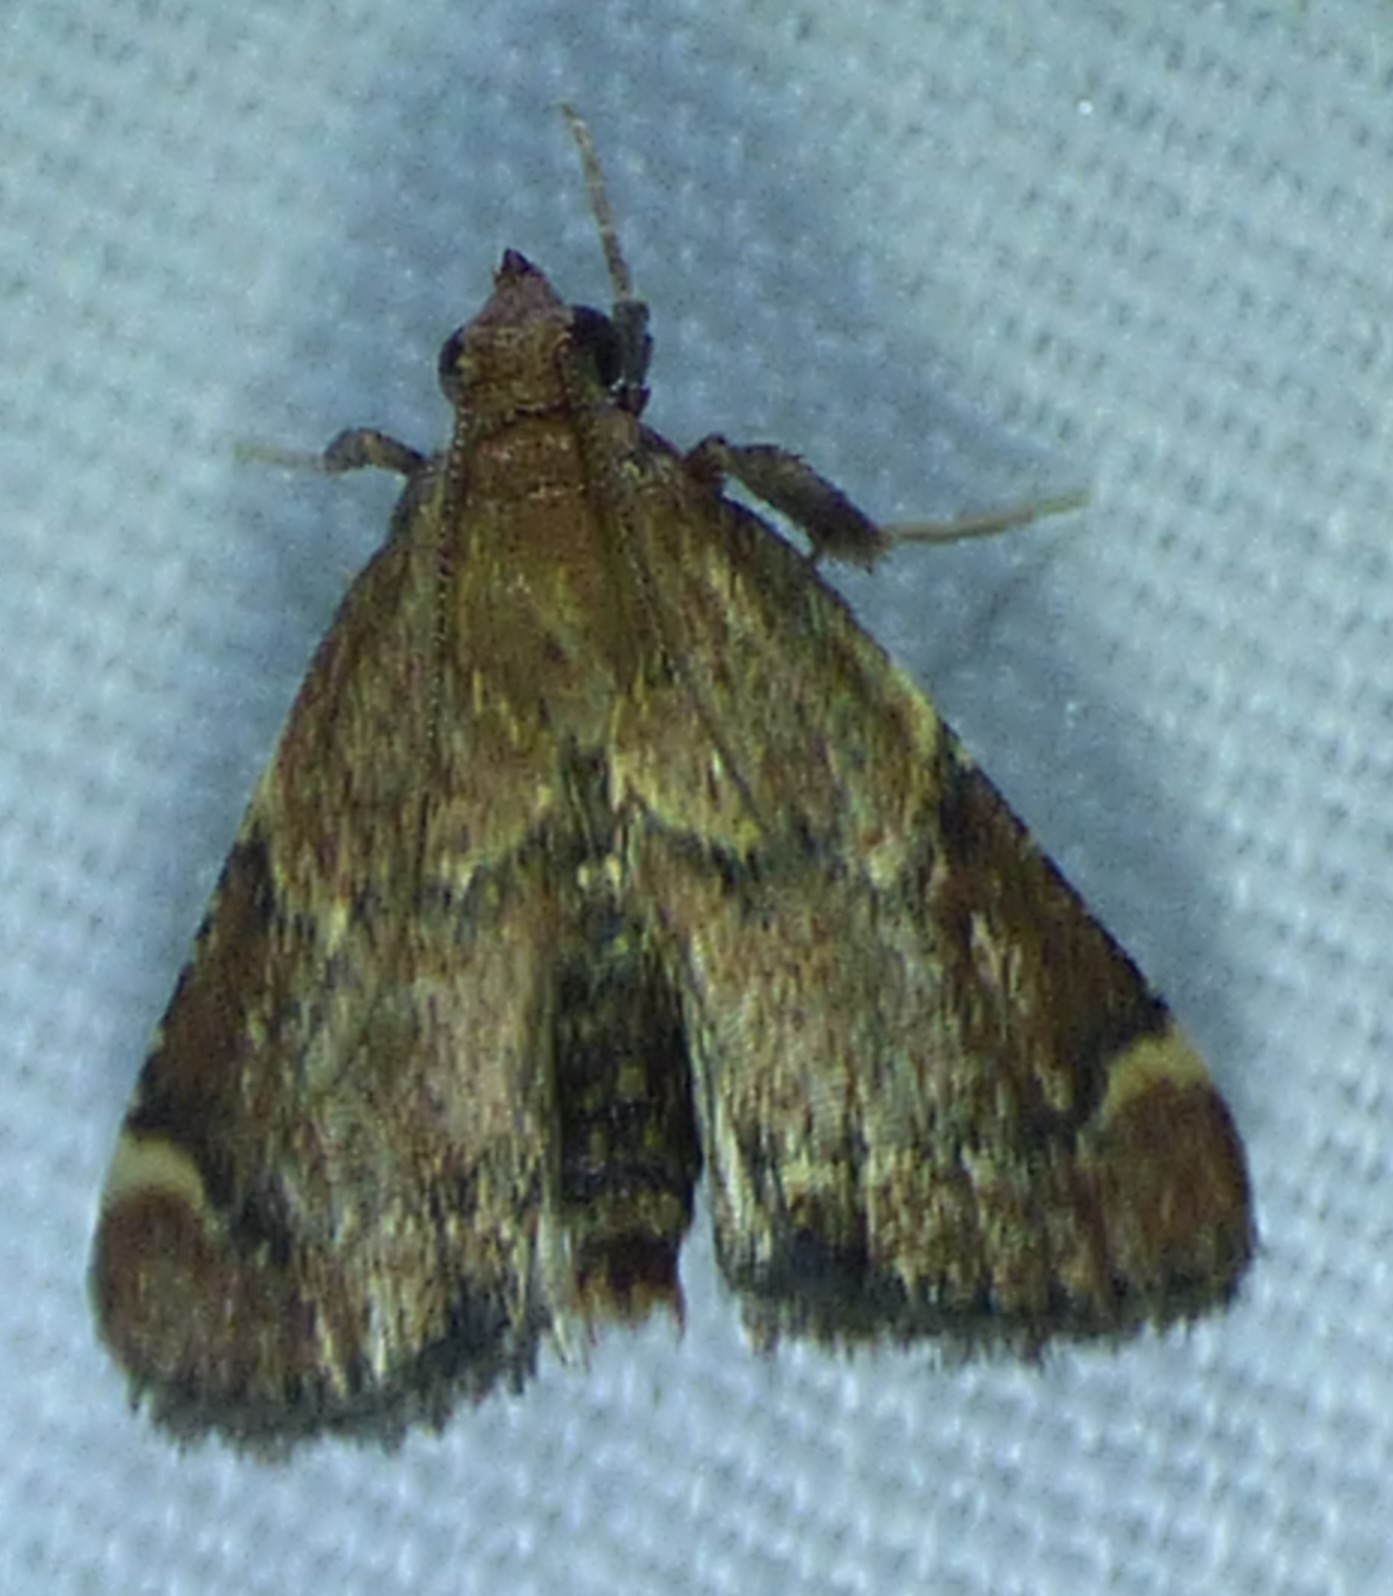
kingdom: Animalia
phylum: Arthropoda
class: Insecta
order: Lepidoptera
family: Pyralidae
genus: Hypsopygia
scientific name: Hypsopygia intermedialis
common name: Red-shawled moth
